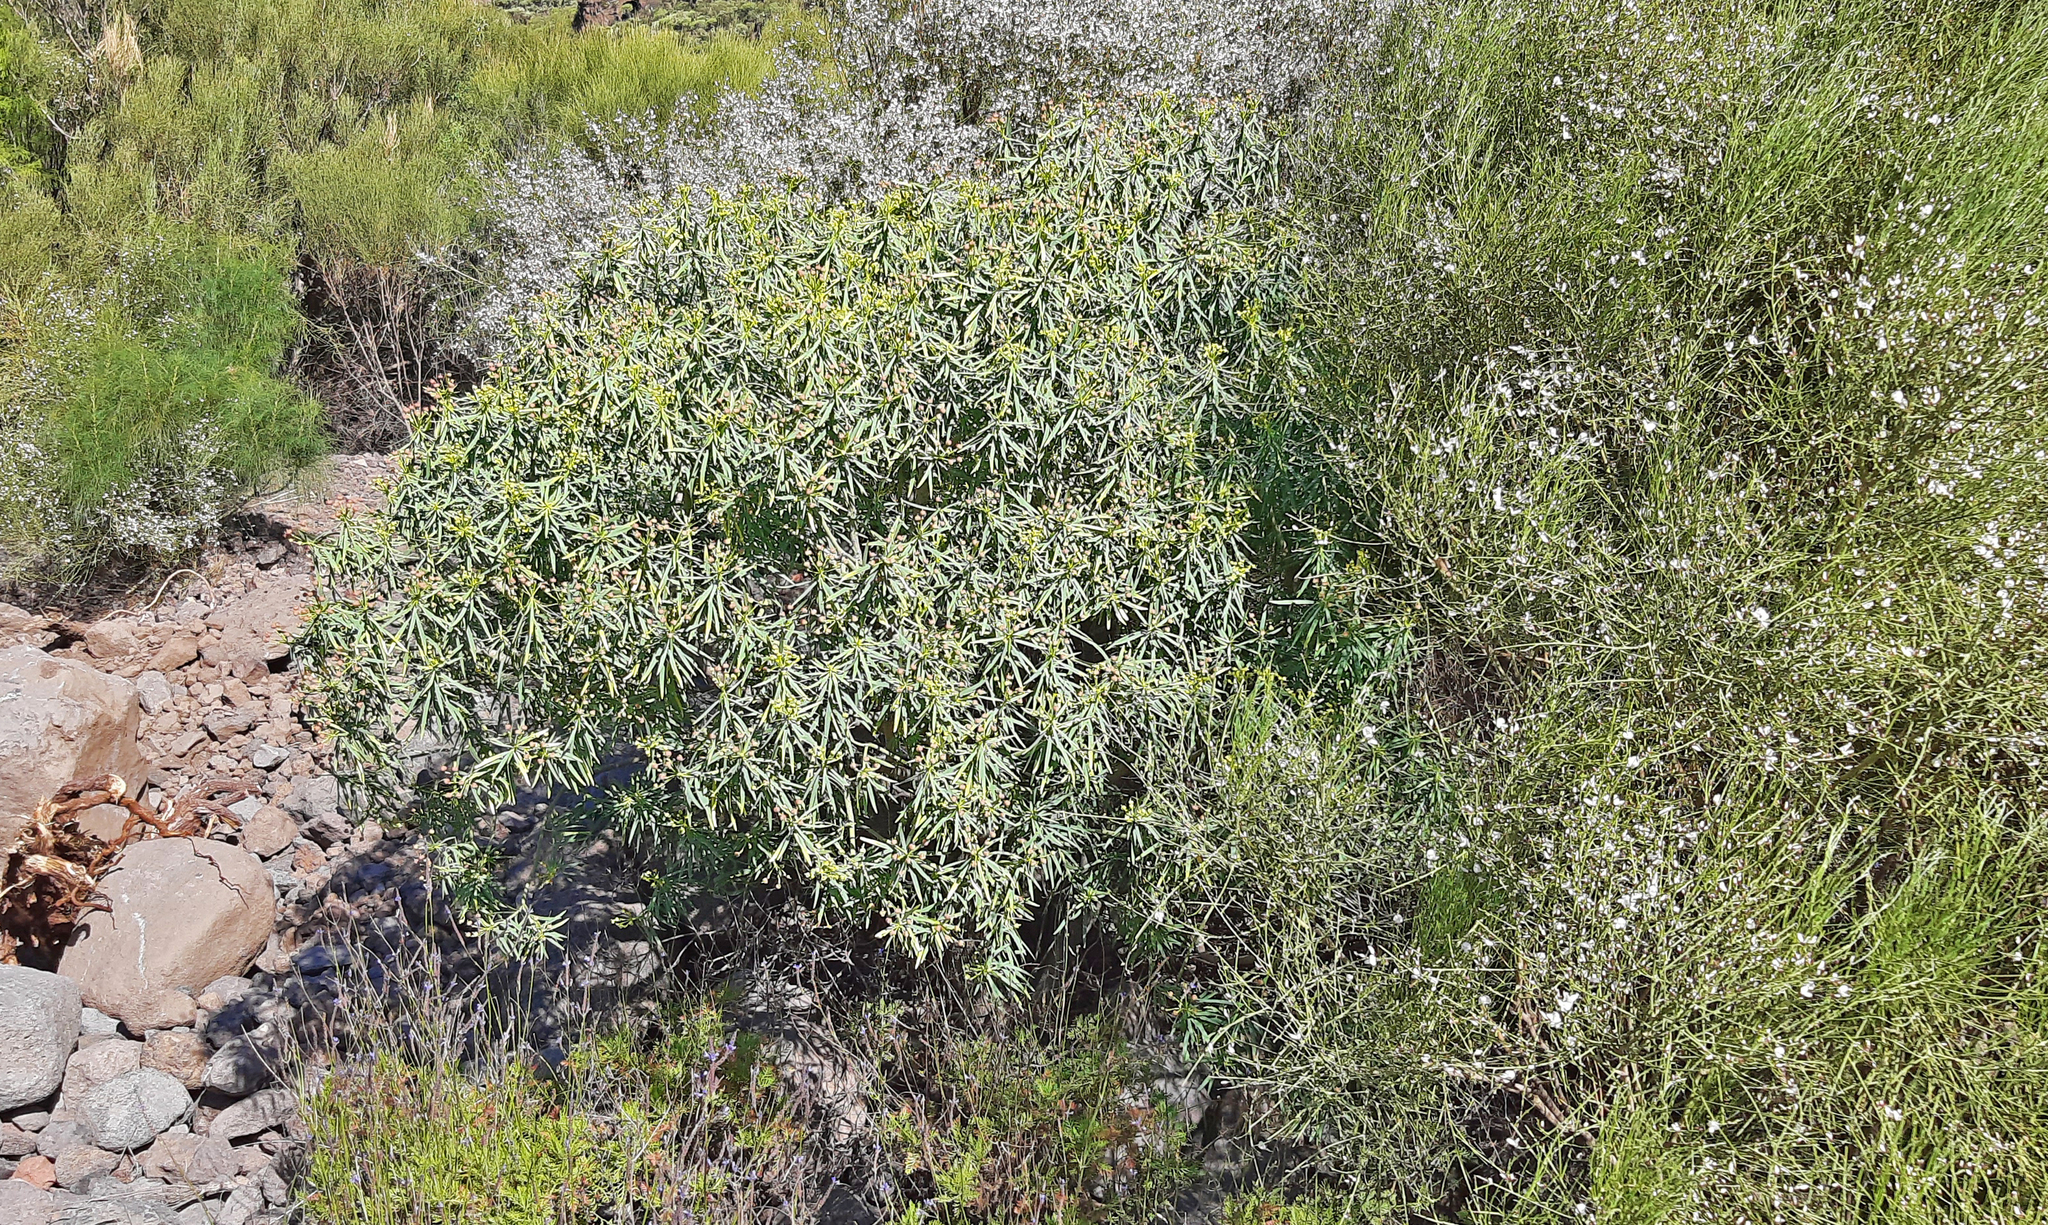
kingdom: Plantae
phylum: Tracheophyta
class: Magnoliopsida
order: Malpighiales
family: Euphorbiaceae
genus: Euphorbia
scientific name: Euphorbia lamarckii
